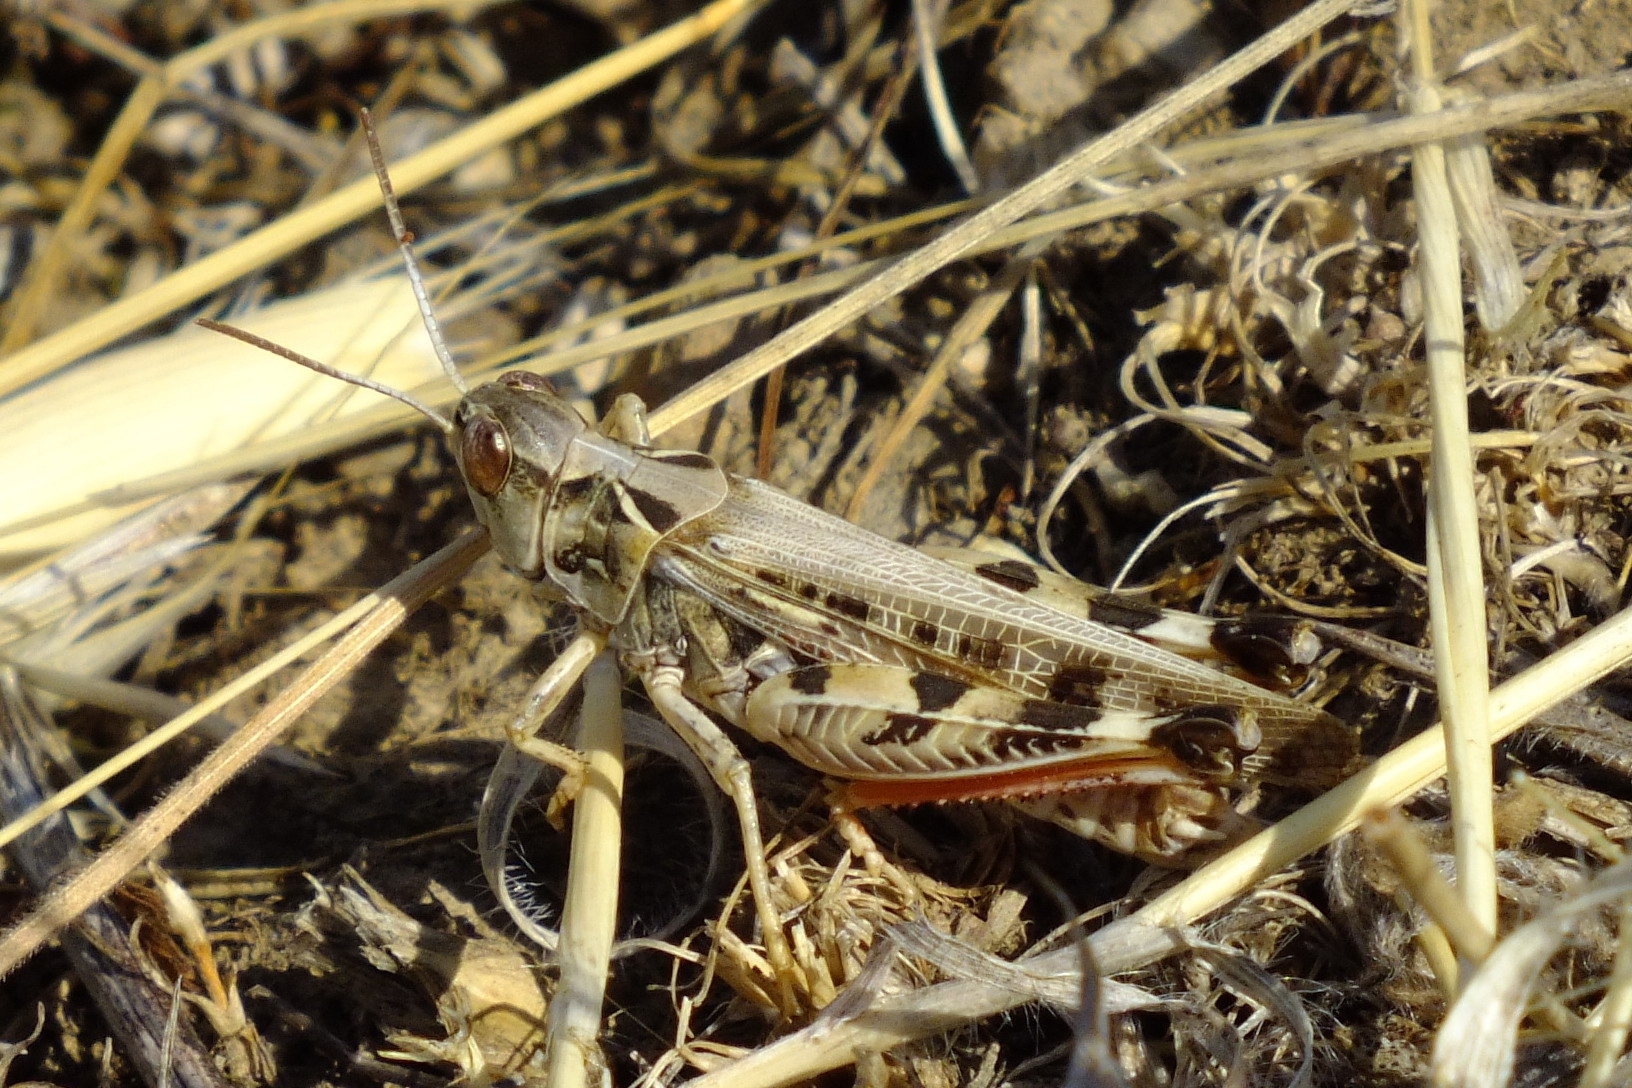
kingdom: Animalia
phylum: Arthropoda
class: Insecta
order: Orthoptera
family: Acrididae
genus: Dociostaurus
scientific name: Dociostaurus maroccanus
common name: Moroccan locust
